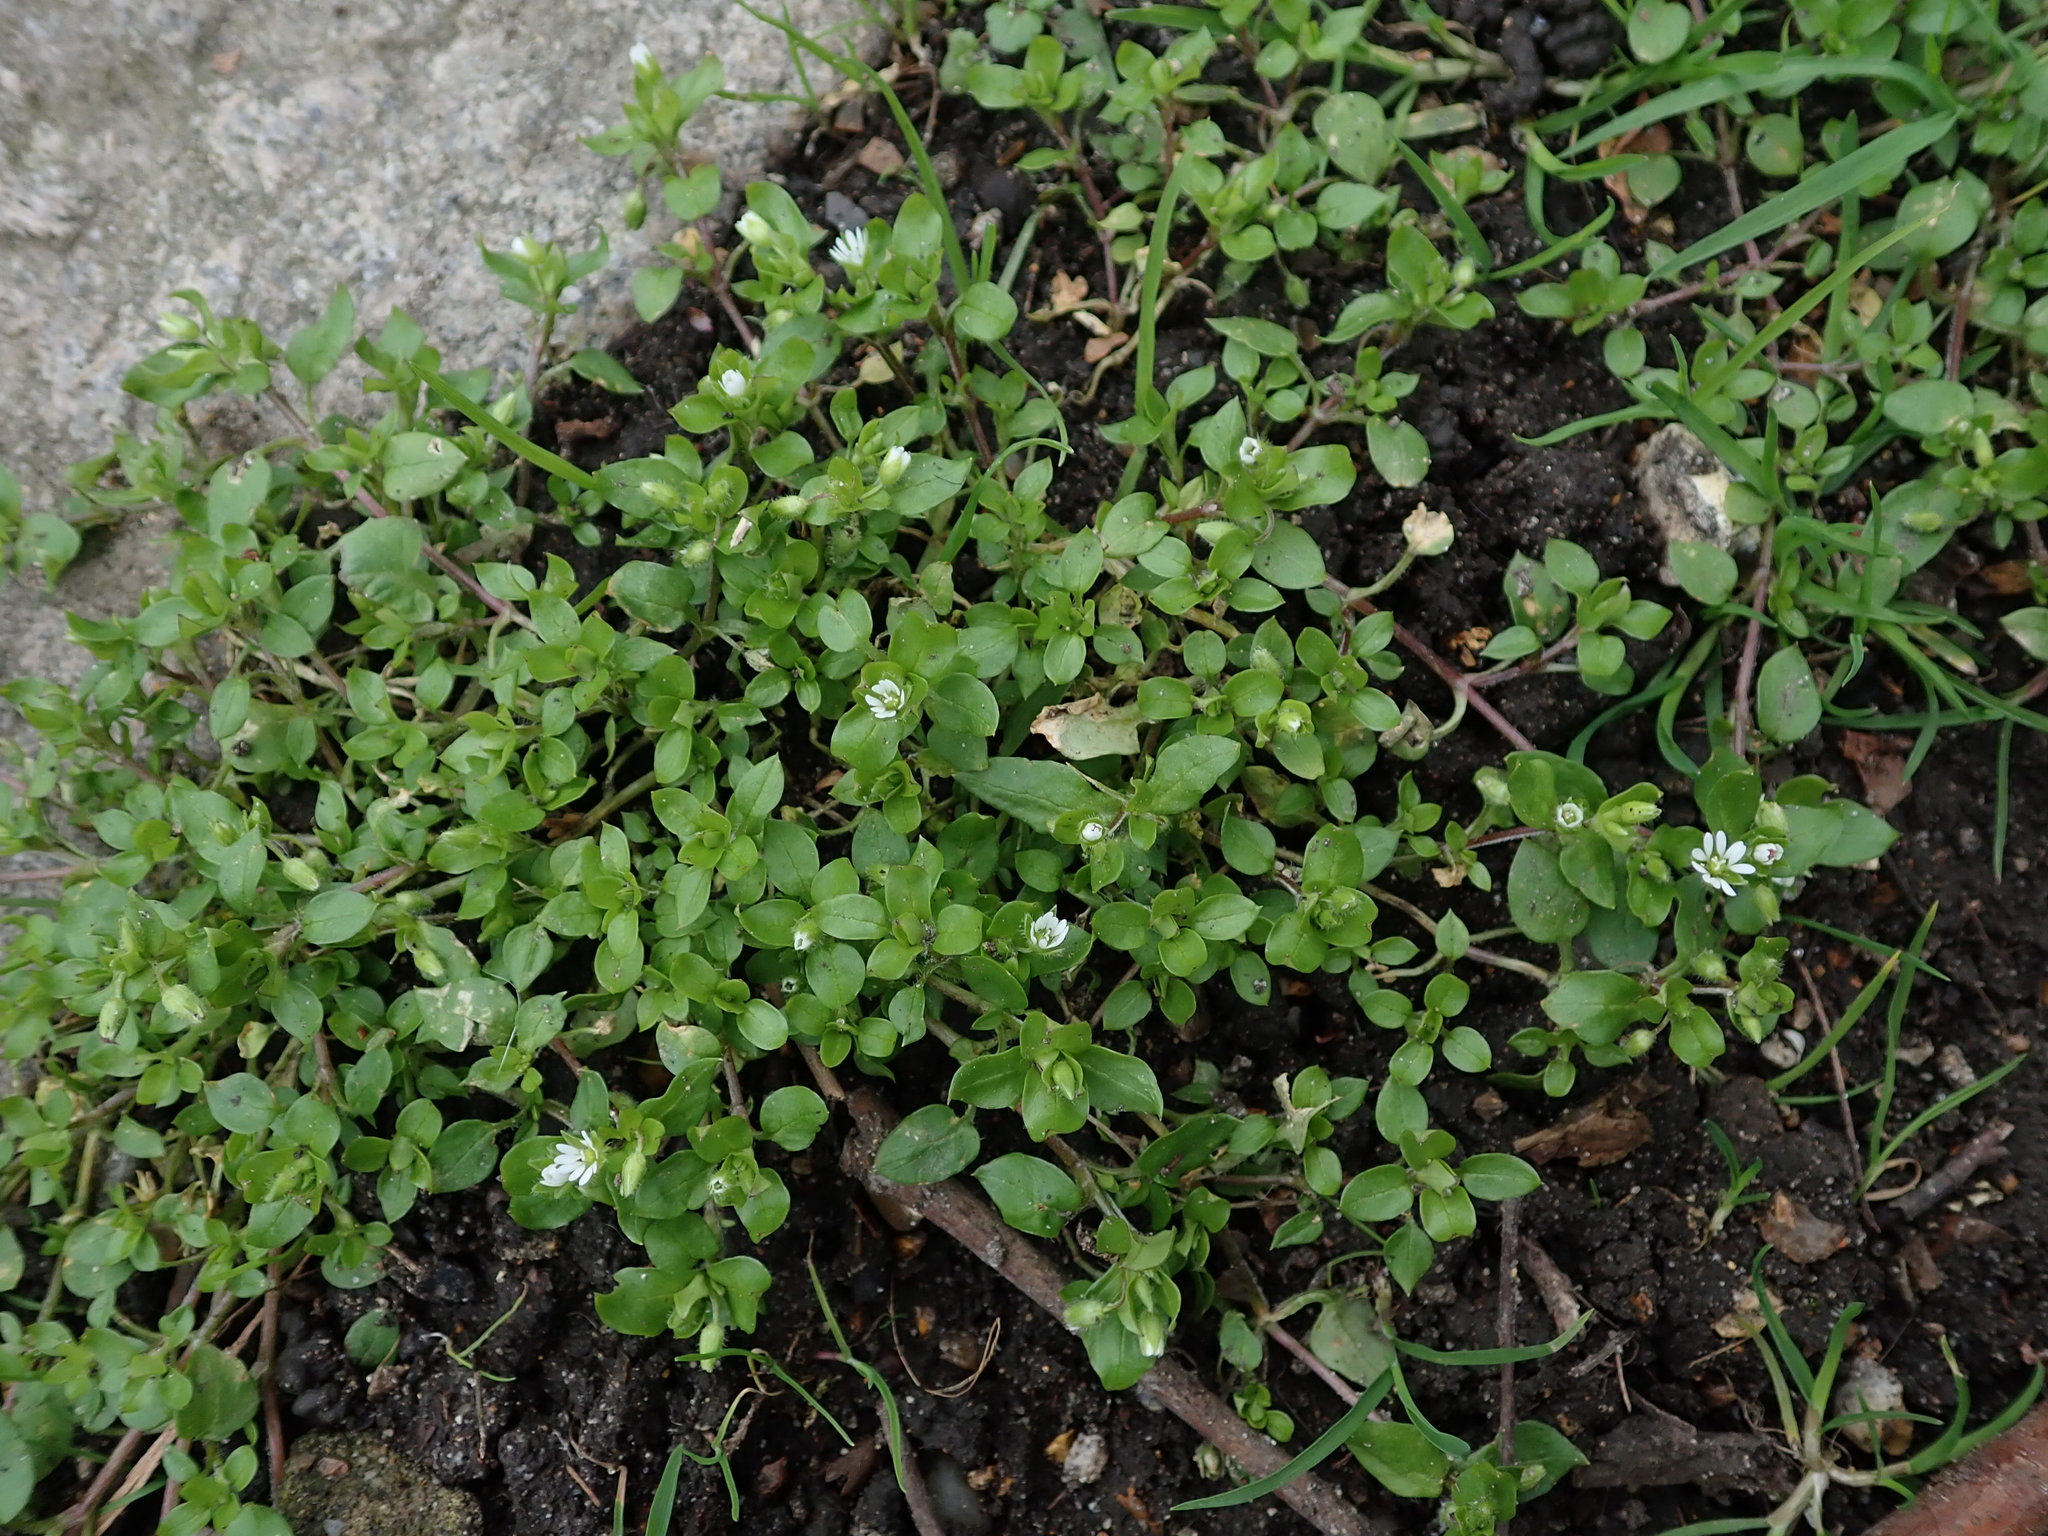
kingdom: Plantae
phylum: Tracheophyta
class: Magnoliopsida
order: Caryophyllales
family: Caryophyllaceae
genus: Stellaria
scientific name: Stellaria media
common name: Common chickweed
